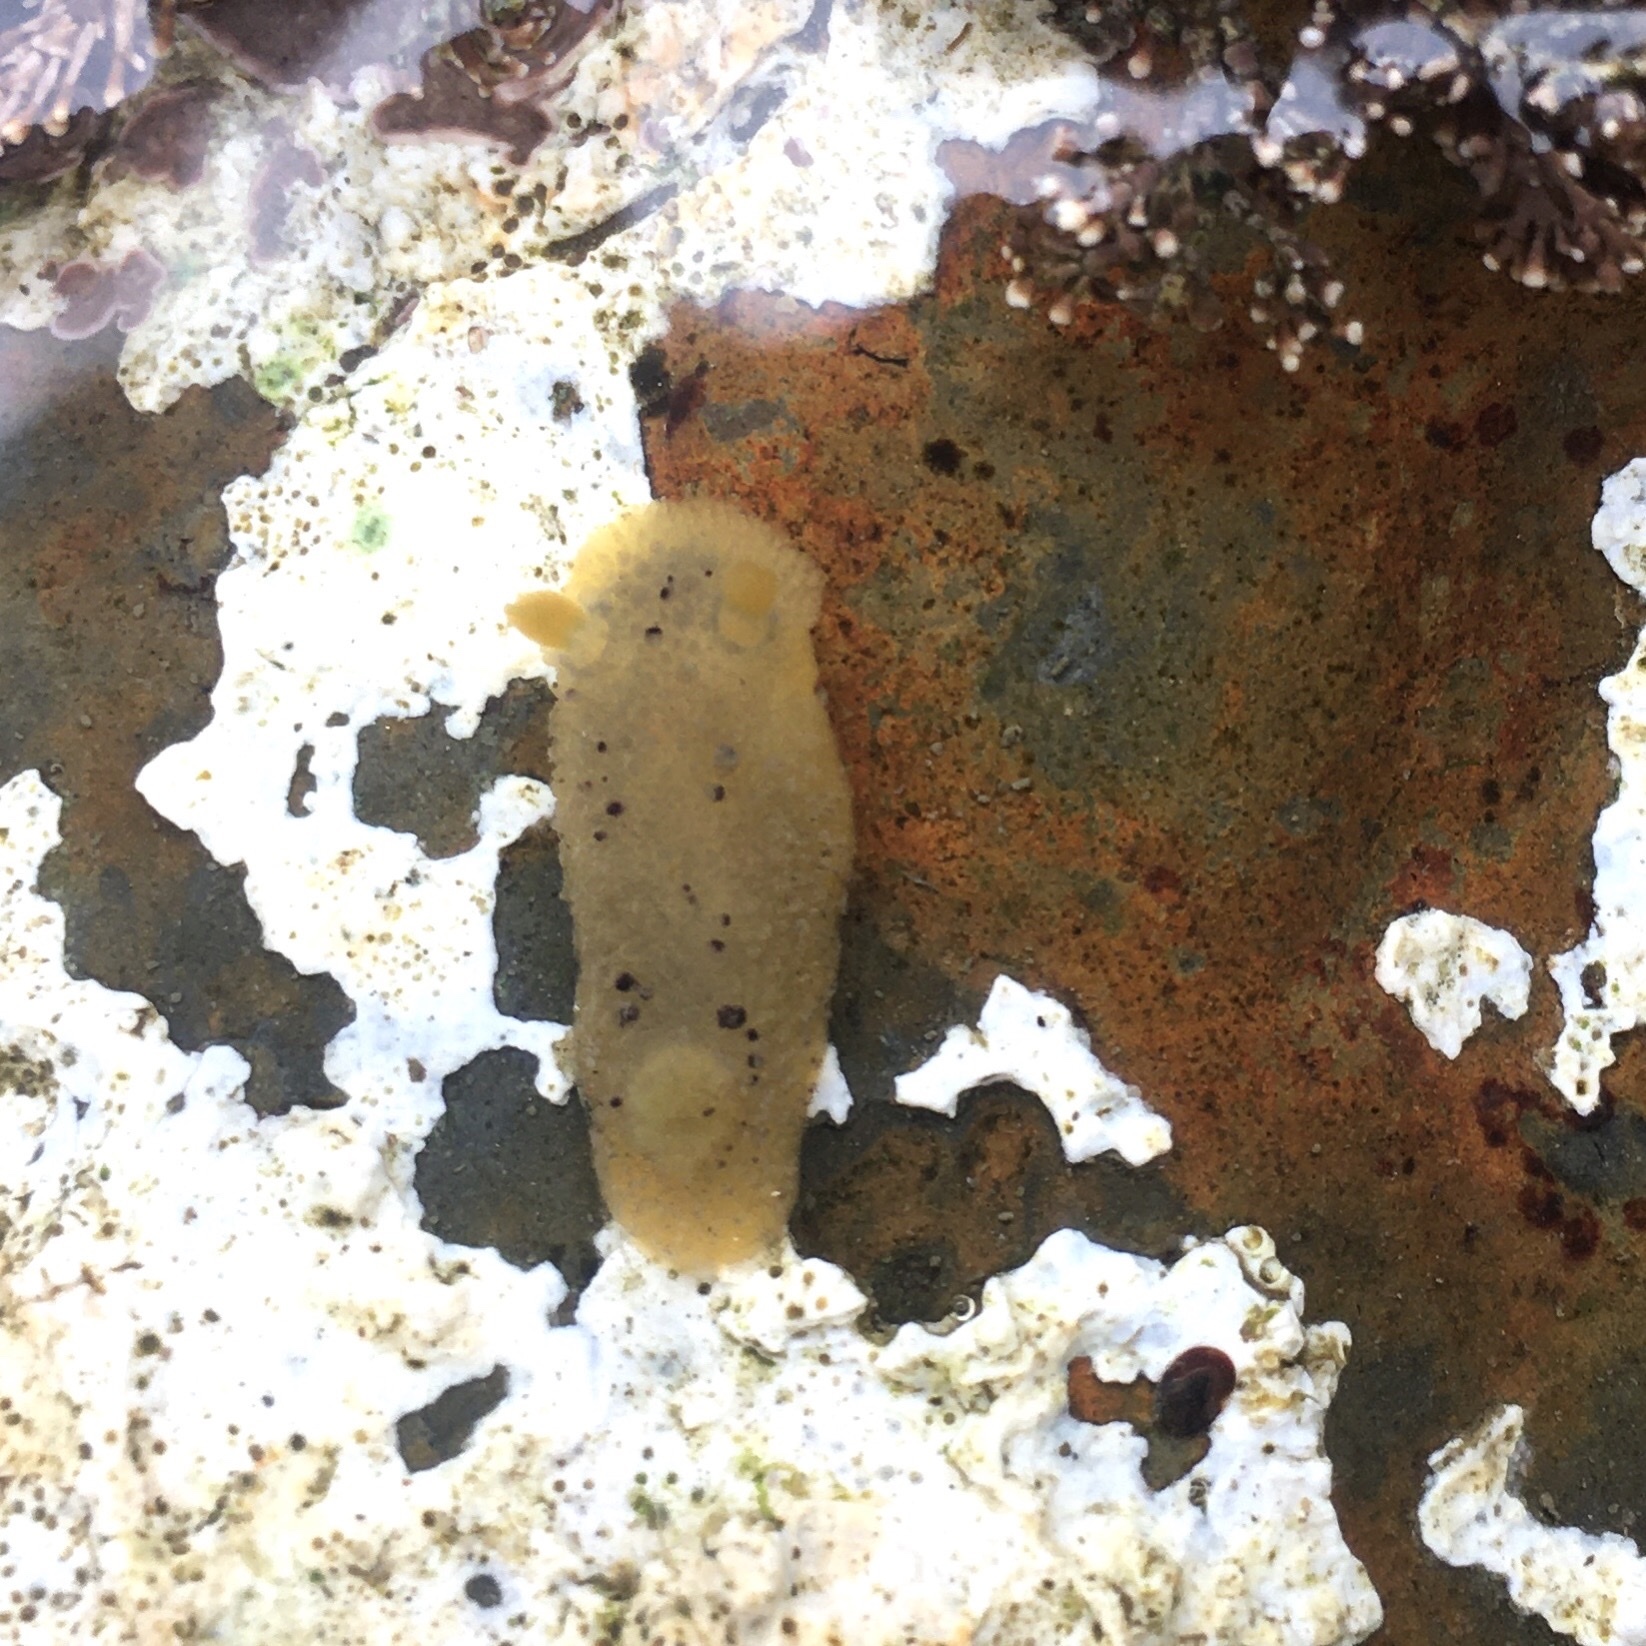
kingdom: Animalia
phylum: Mollusca
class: Gastropoda
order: Nudibranchia
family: Dorididae
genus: Doris
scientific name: Doris montereyensis
